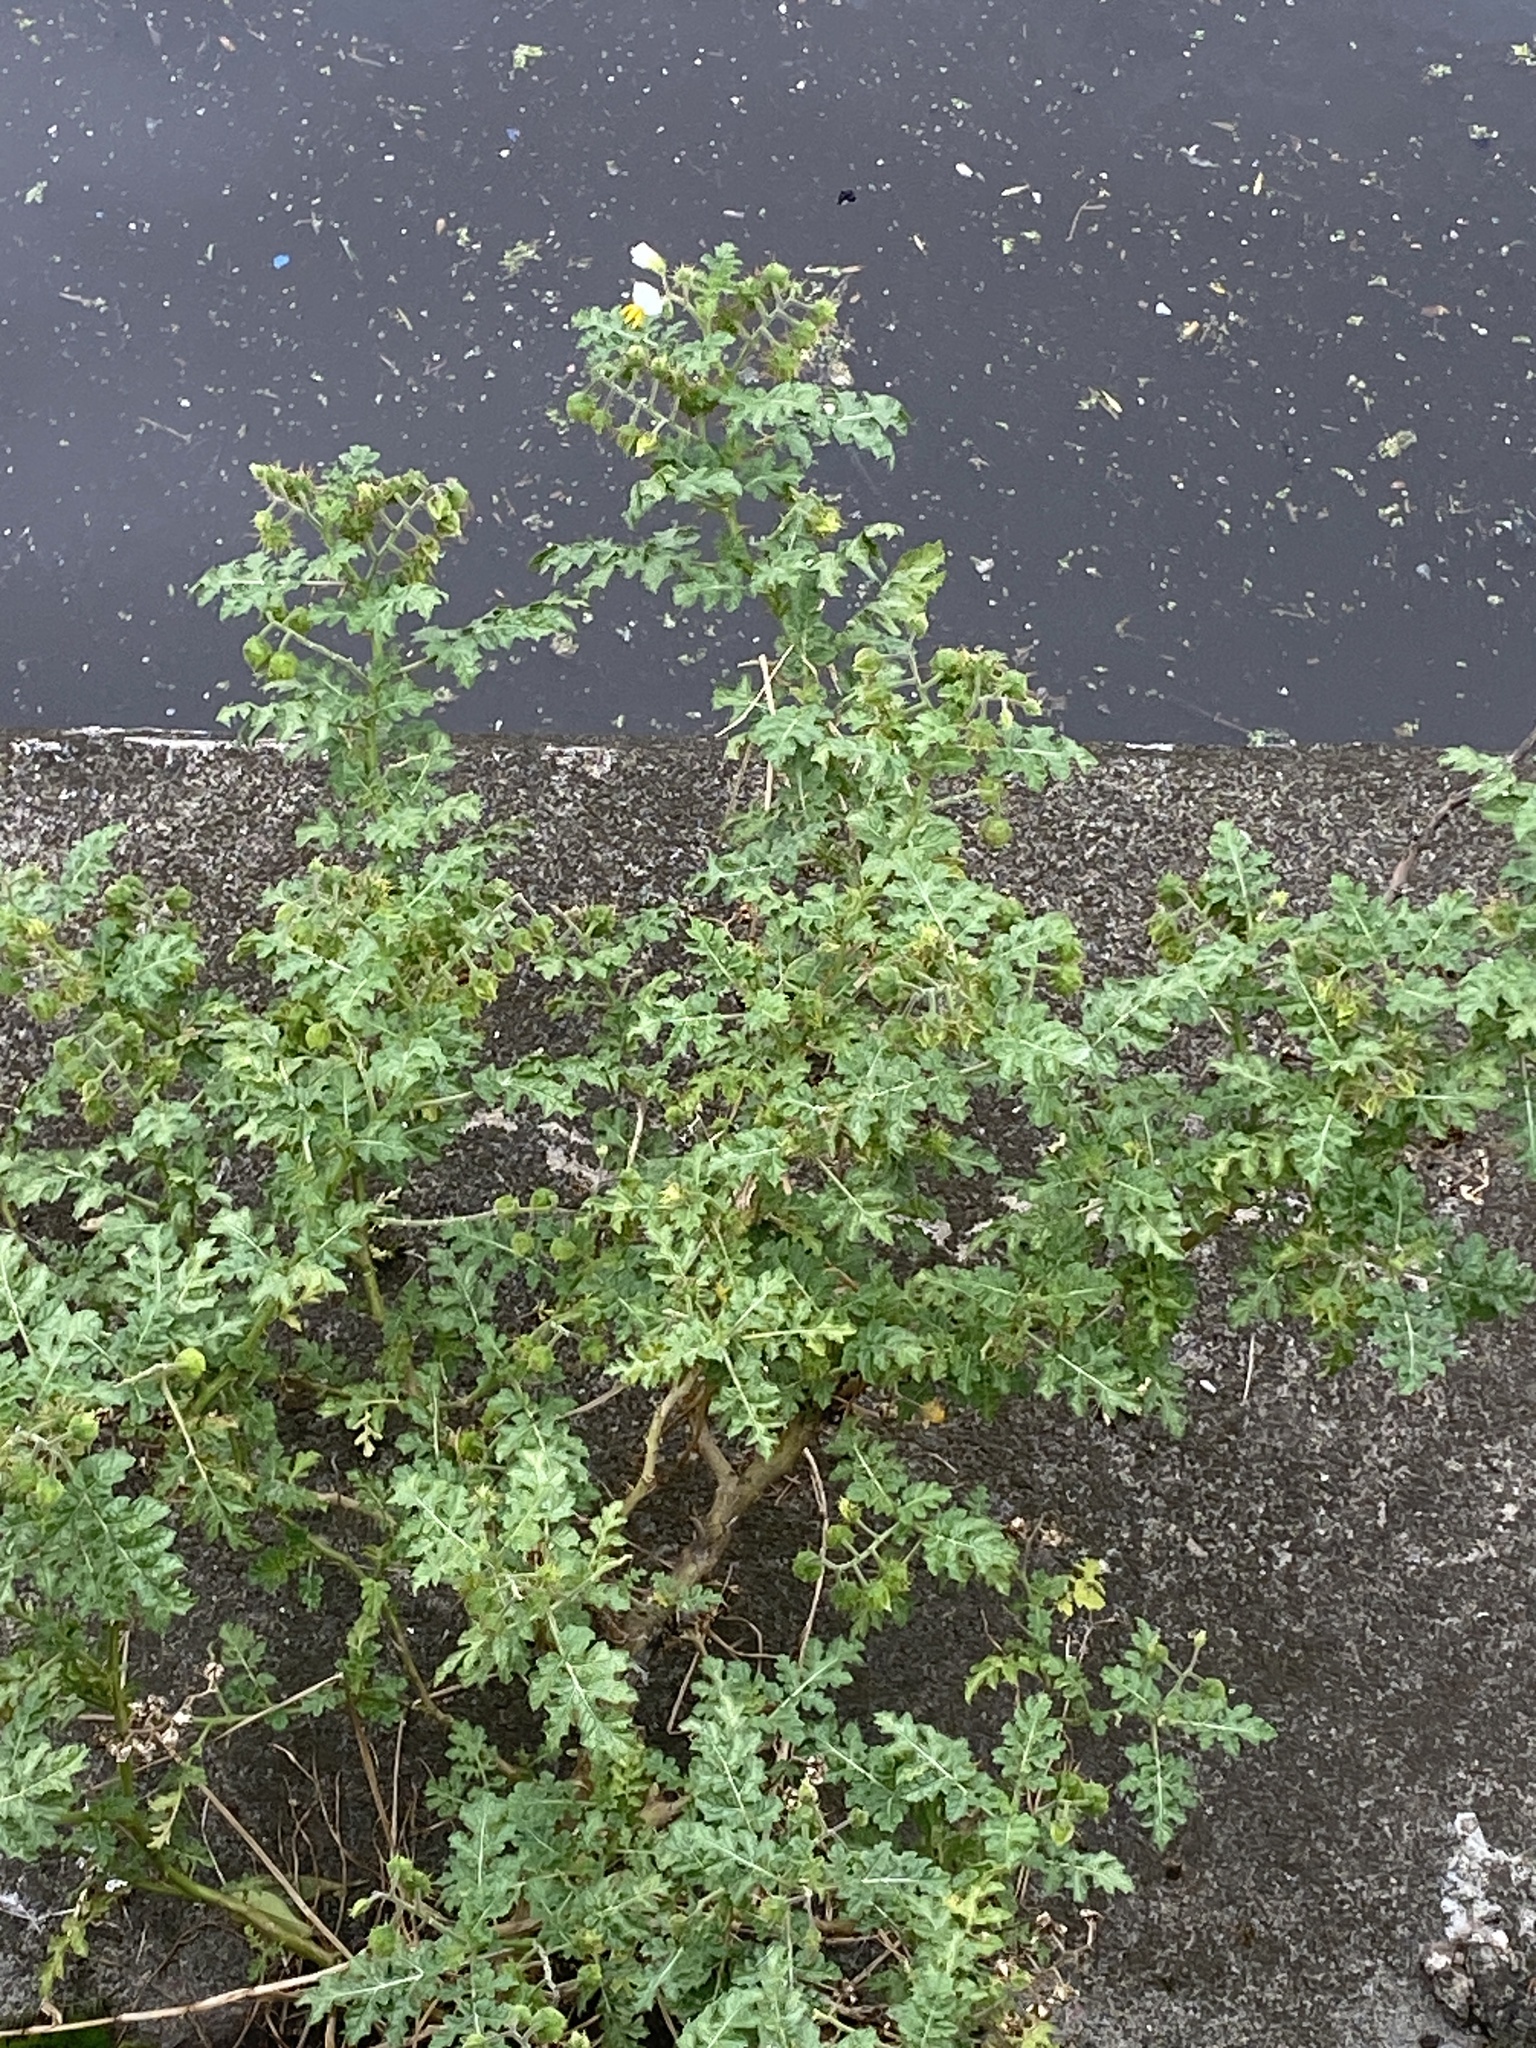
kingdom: Plantae
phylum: Tracheophyta
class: Magnoliopsida
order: Solanales
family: Solanaceae
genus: Solanum
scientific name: Solanum sisymbriifolium
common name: Red buffalo-bur
